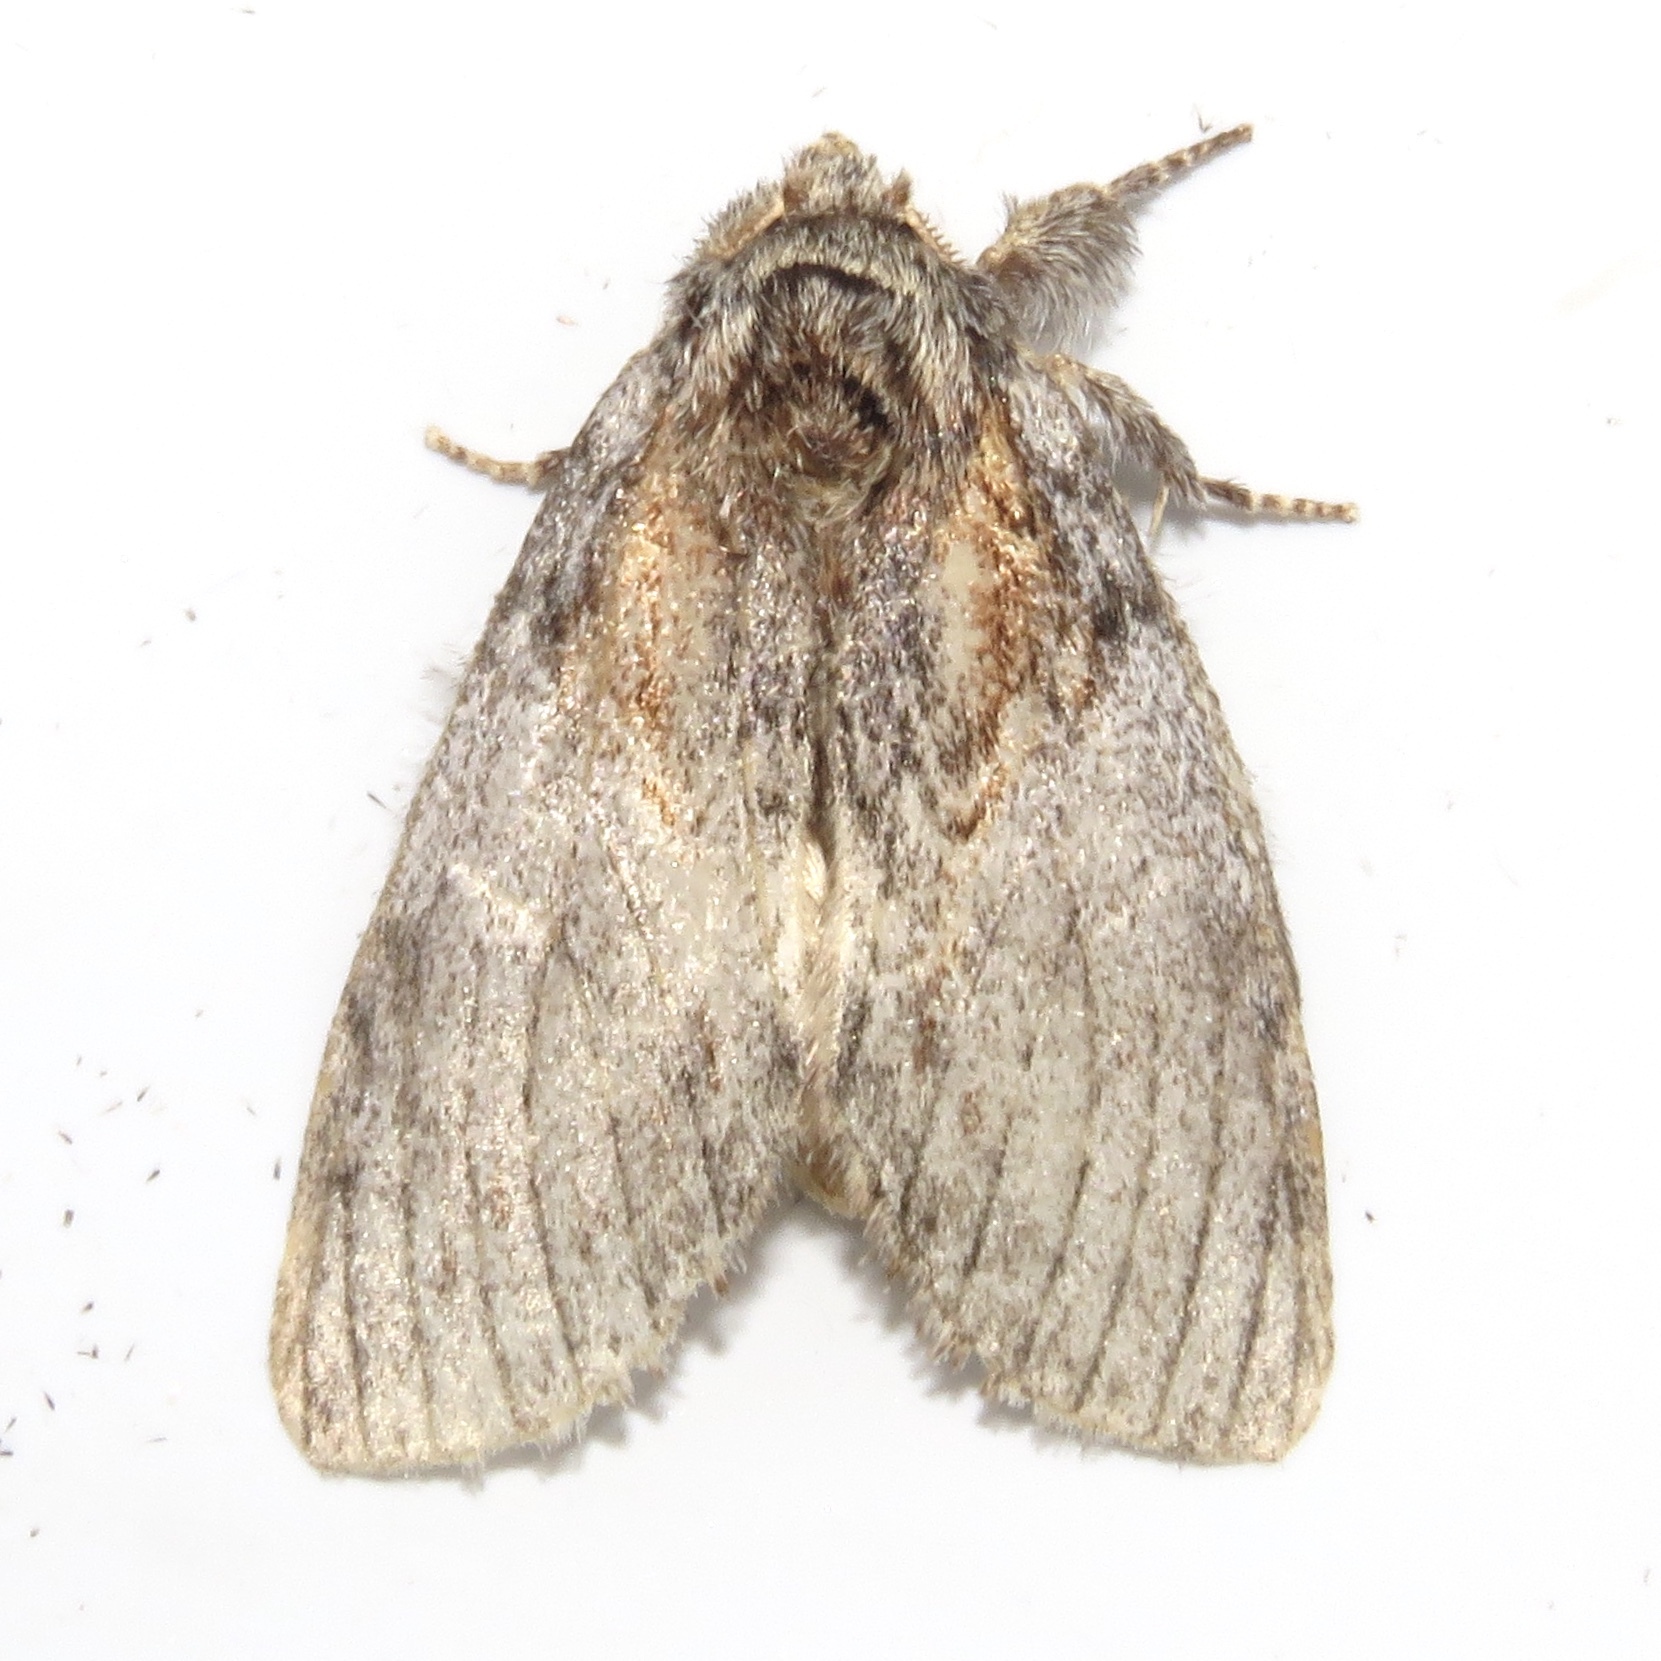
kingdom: Animalia
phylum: Arthropoda
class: Insecta
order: Lepidoptera
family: Notodontidae
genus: Peridea
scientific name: Peridea basitriens
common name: Oval-based prominent
